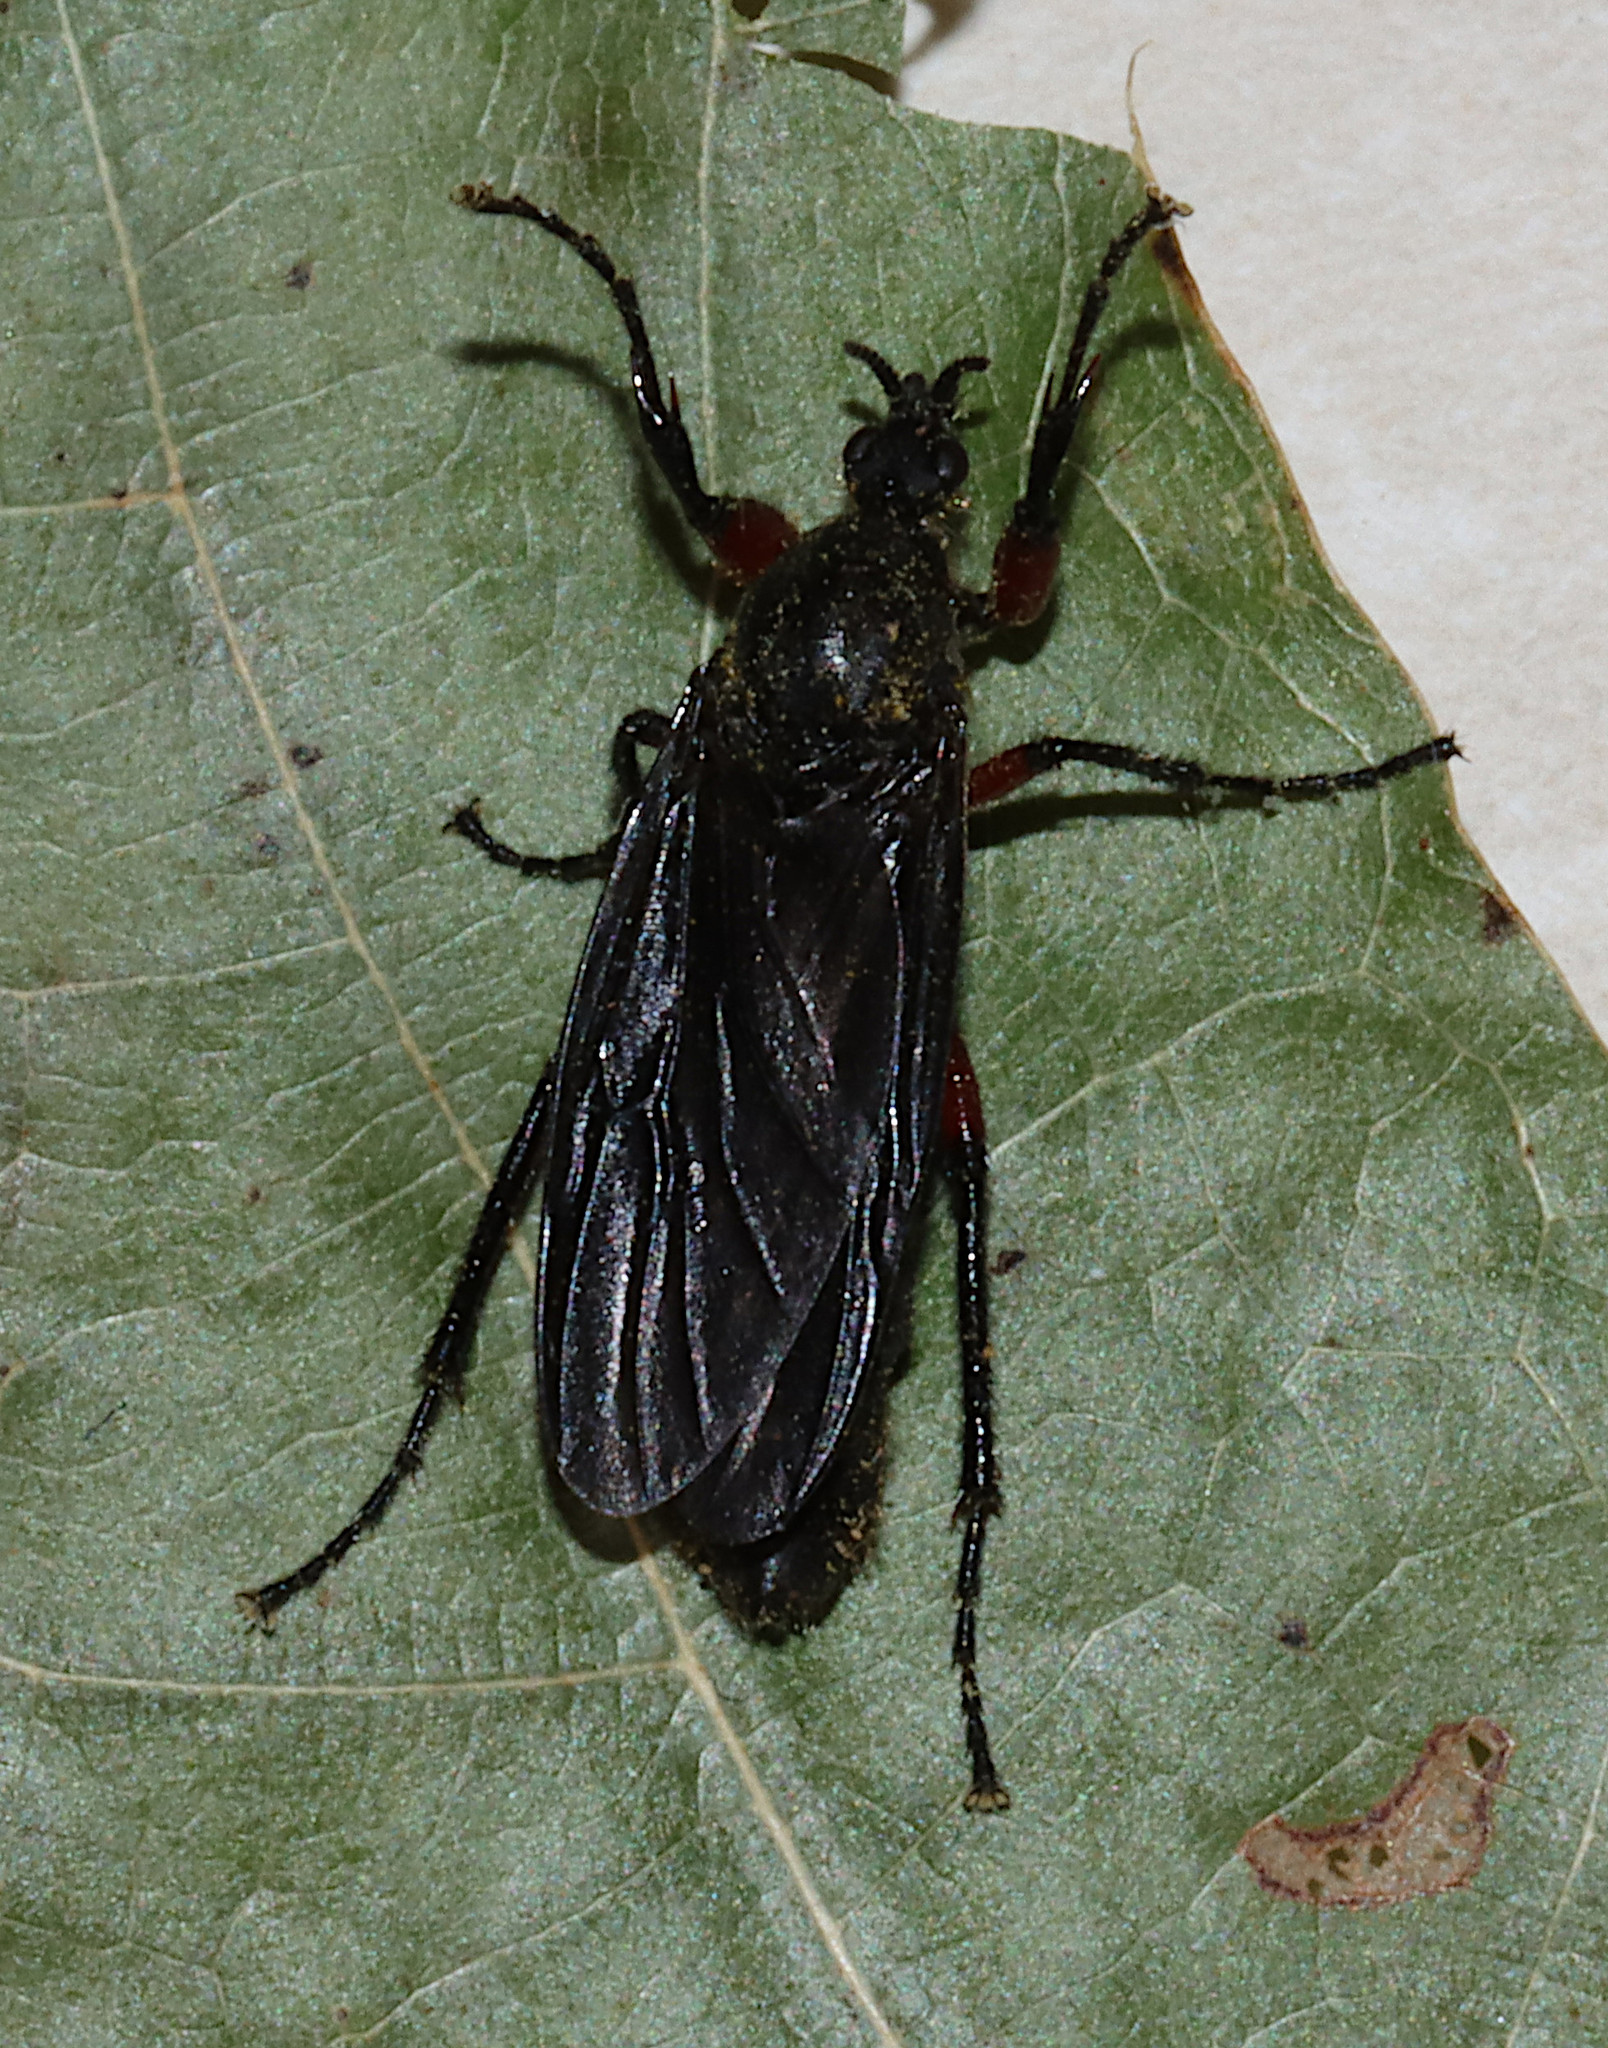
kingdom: Animalia
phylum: Arthropoda
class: Insecta
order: Diptera
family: Bibionidae
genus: Bibio
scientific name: Bibio femoratus
